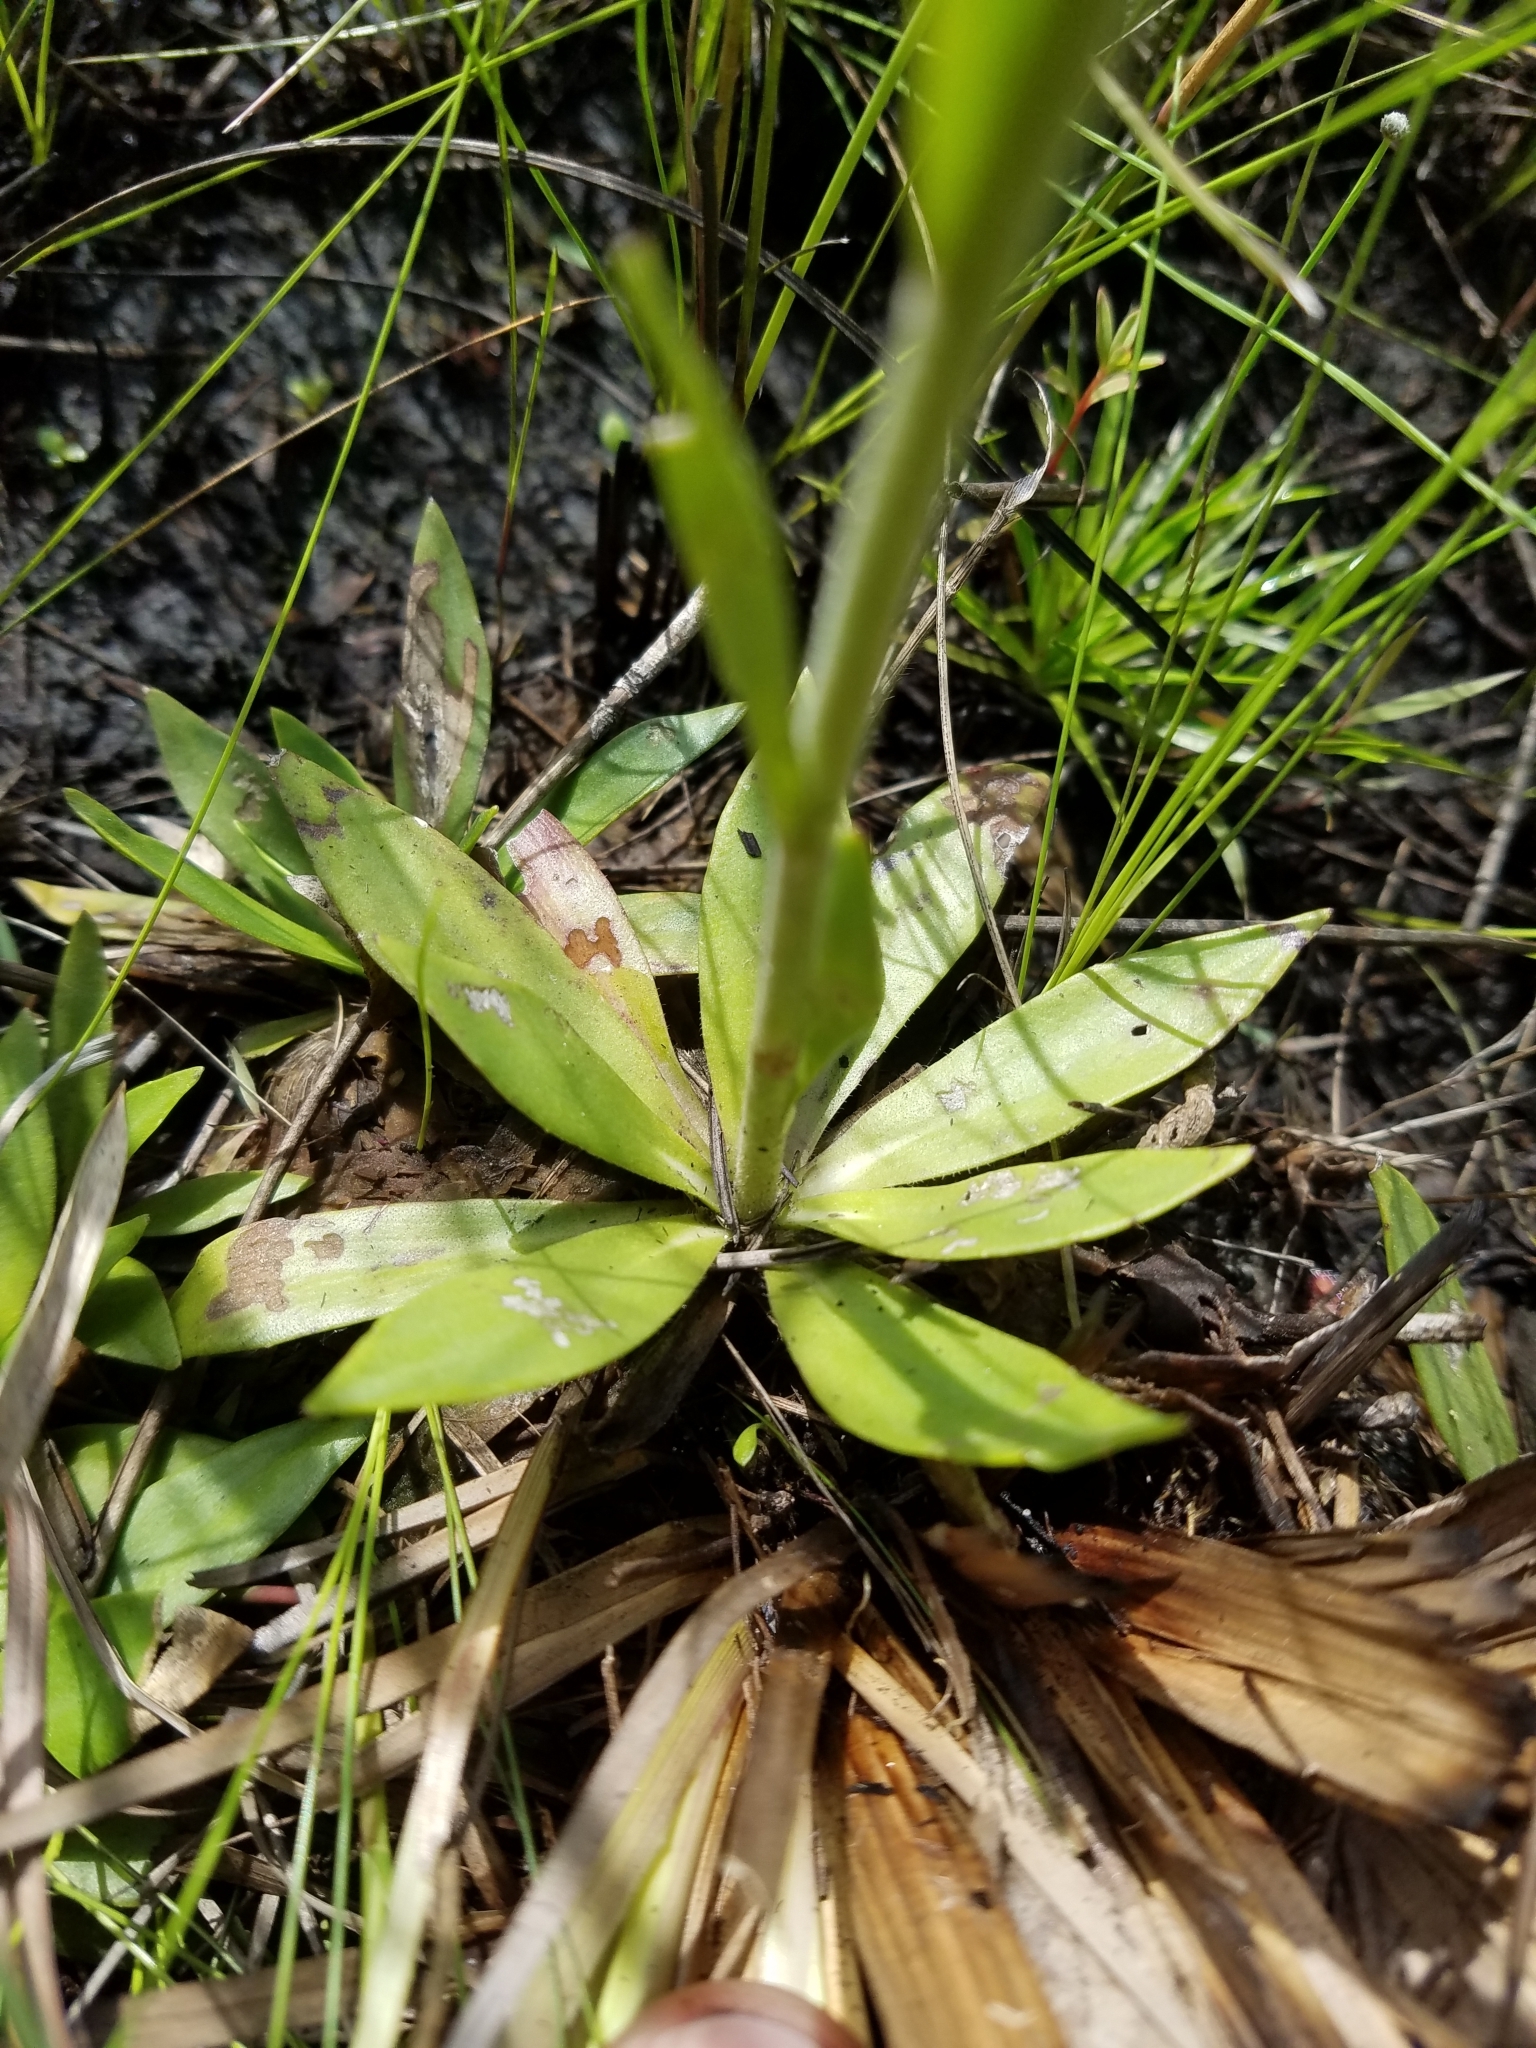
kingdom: Plantae
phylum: Tracheophyta
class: Magnoliopsida
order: Asterales
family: Asteraceae
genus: Carphephorus
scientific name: Carphephorus carnosus
